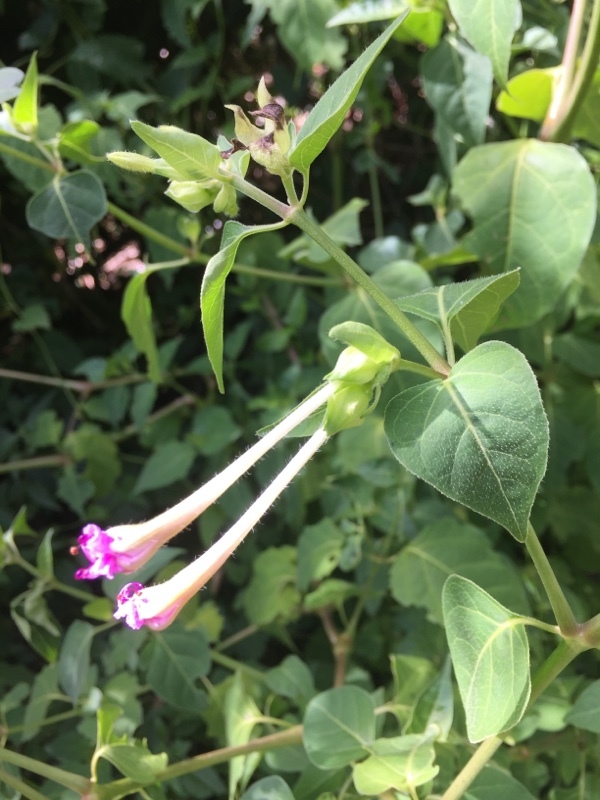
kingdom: Plantae
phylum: Tracheophyta
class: Magnoliopsida
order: Caryophyllales
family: Nyctaginaceae
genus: Mirabilis
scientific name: Mirabilis jalapa
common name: Marvel-of-peru
